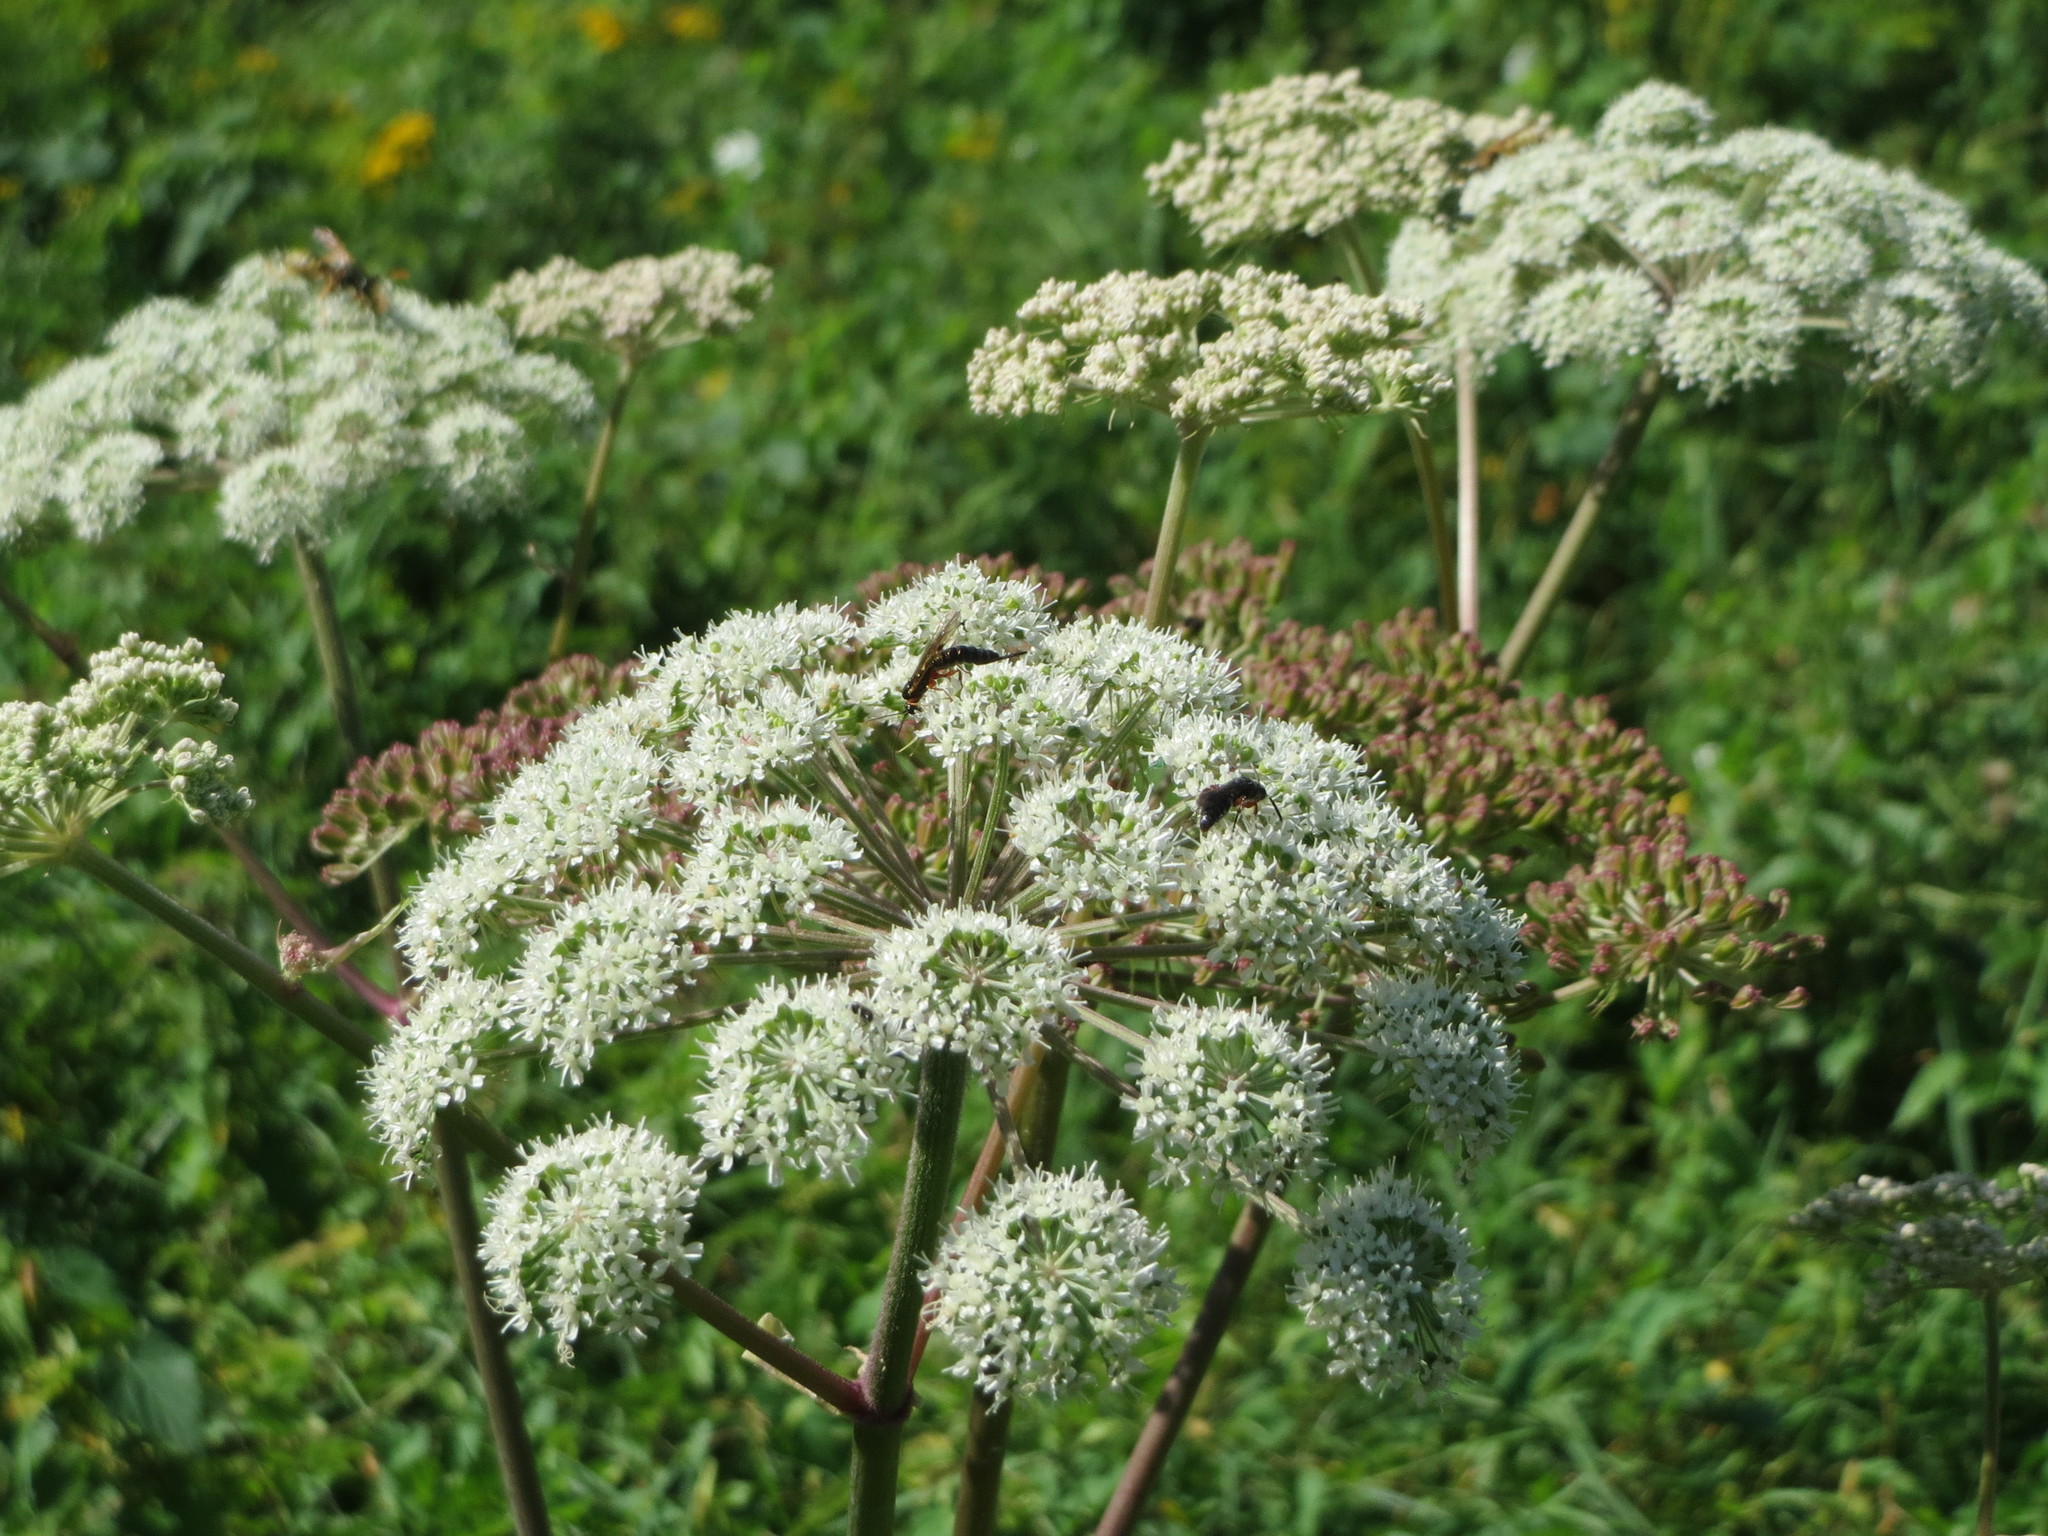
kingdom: Plantae
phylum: Tracheophyta
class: Magnoliopsida
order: Apiales
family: Apiaceae
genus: Angelica
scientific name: Angelica sylvestris
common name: Wild angelica
